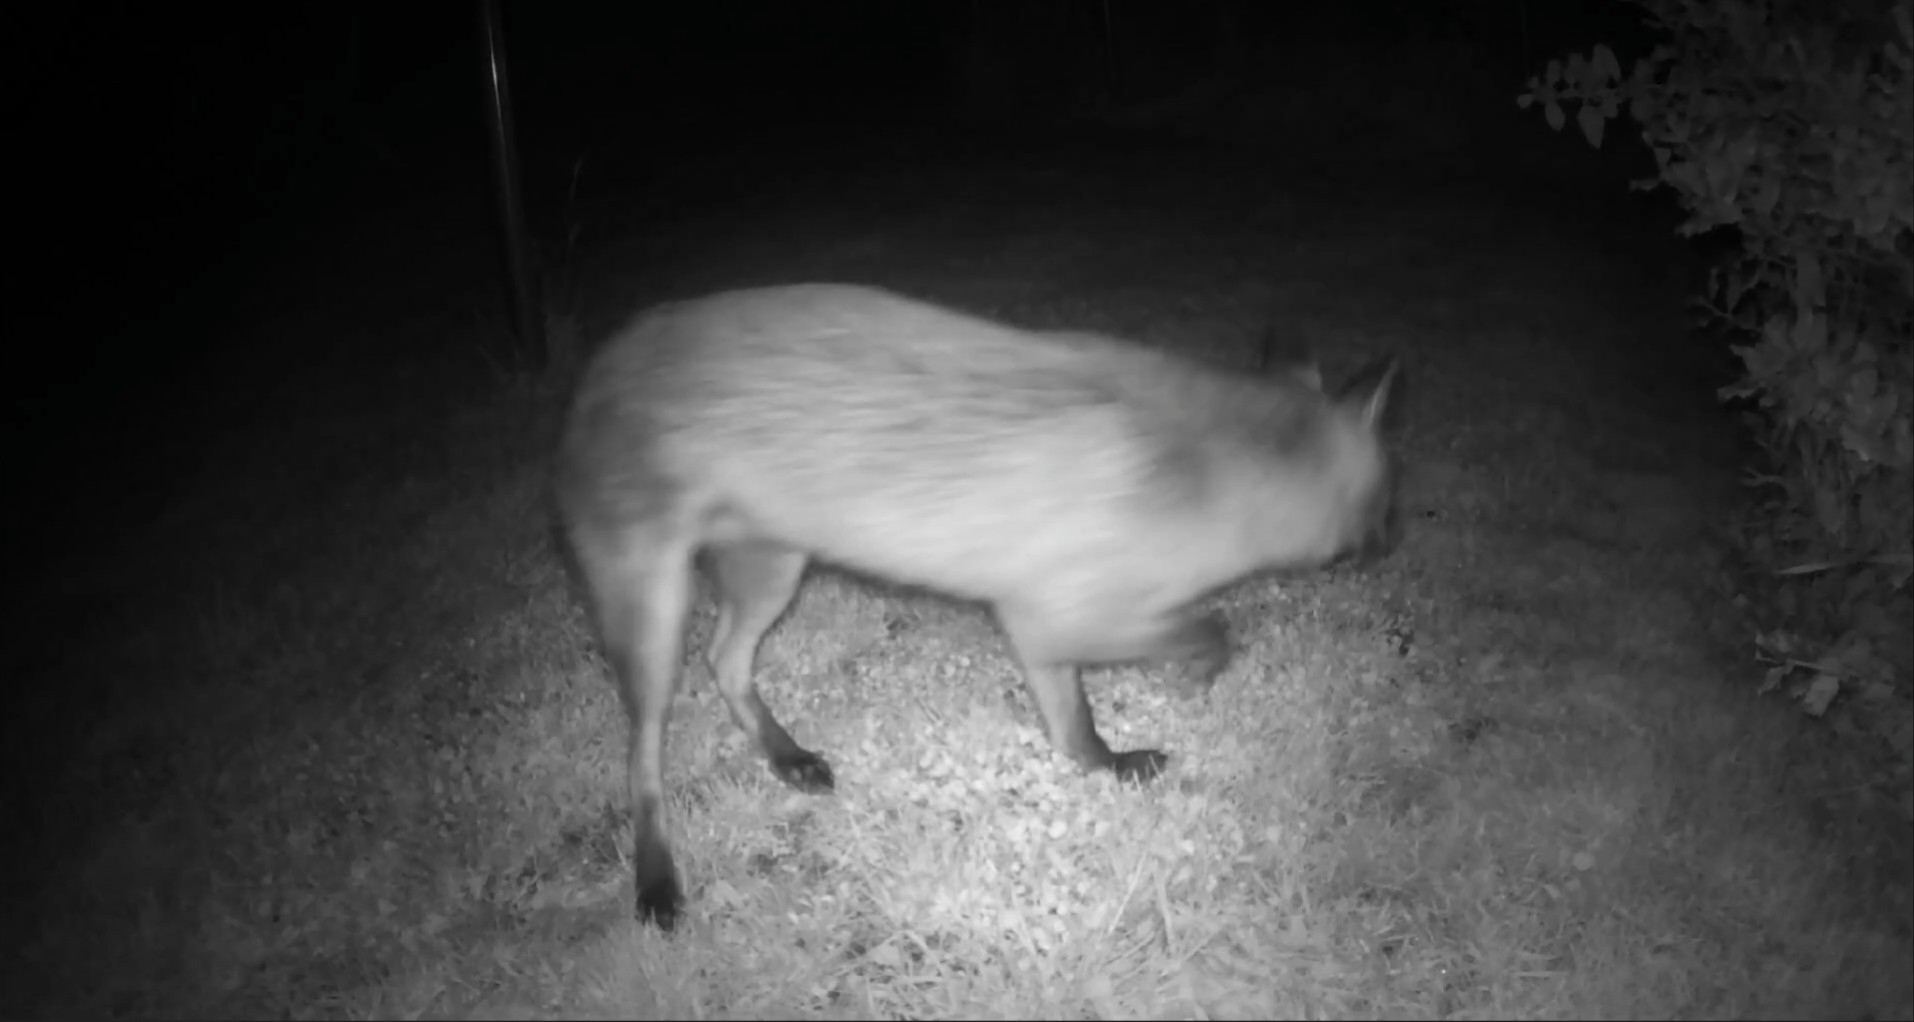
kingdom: Animalia
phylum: Chordata
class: Mammalia
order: Carnivora
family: Canidae
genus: Vulpes
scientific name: Vulpes vulpes
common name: Red fox
